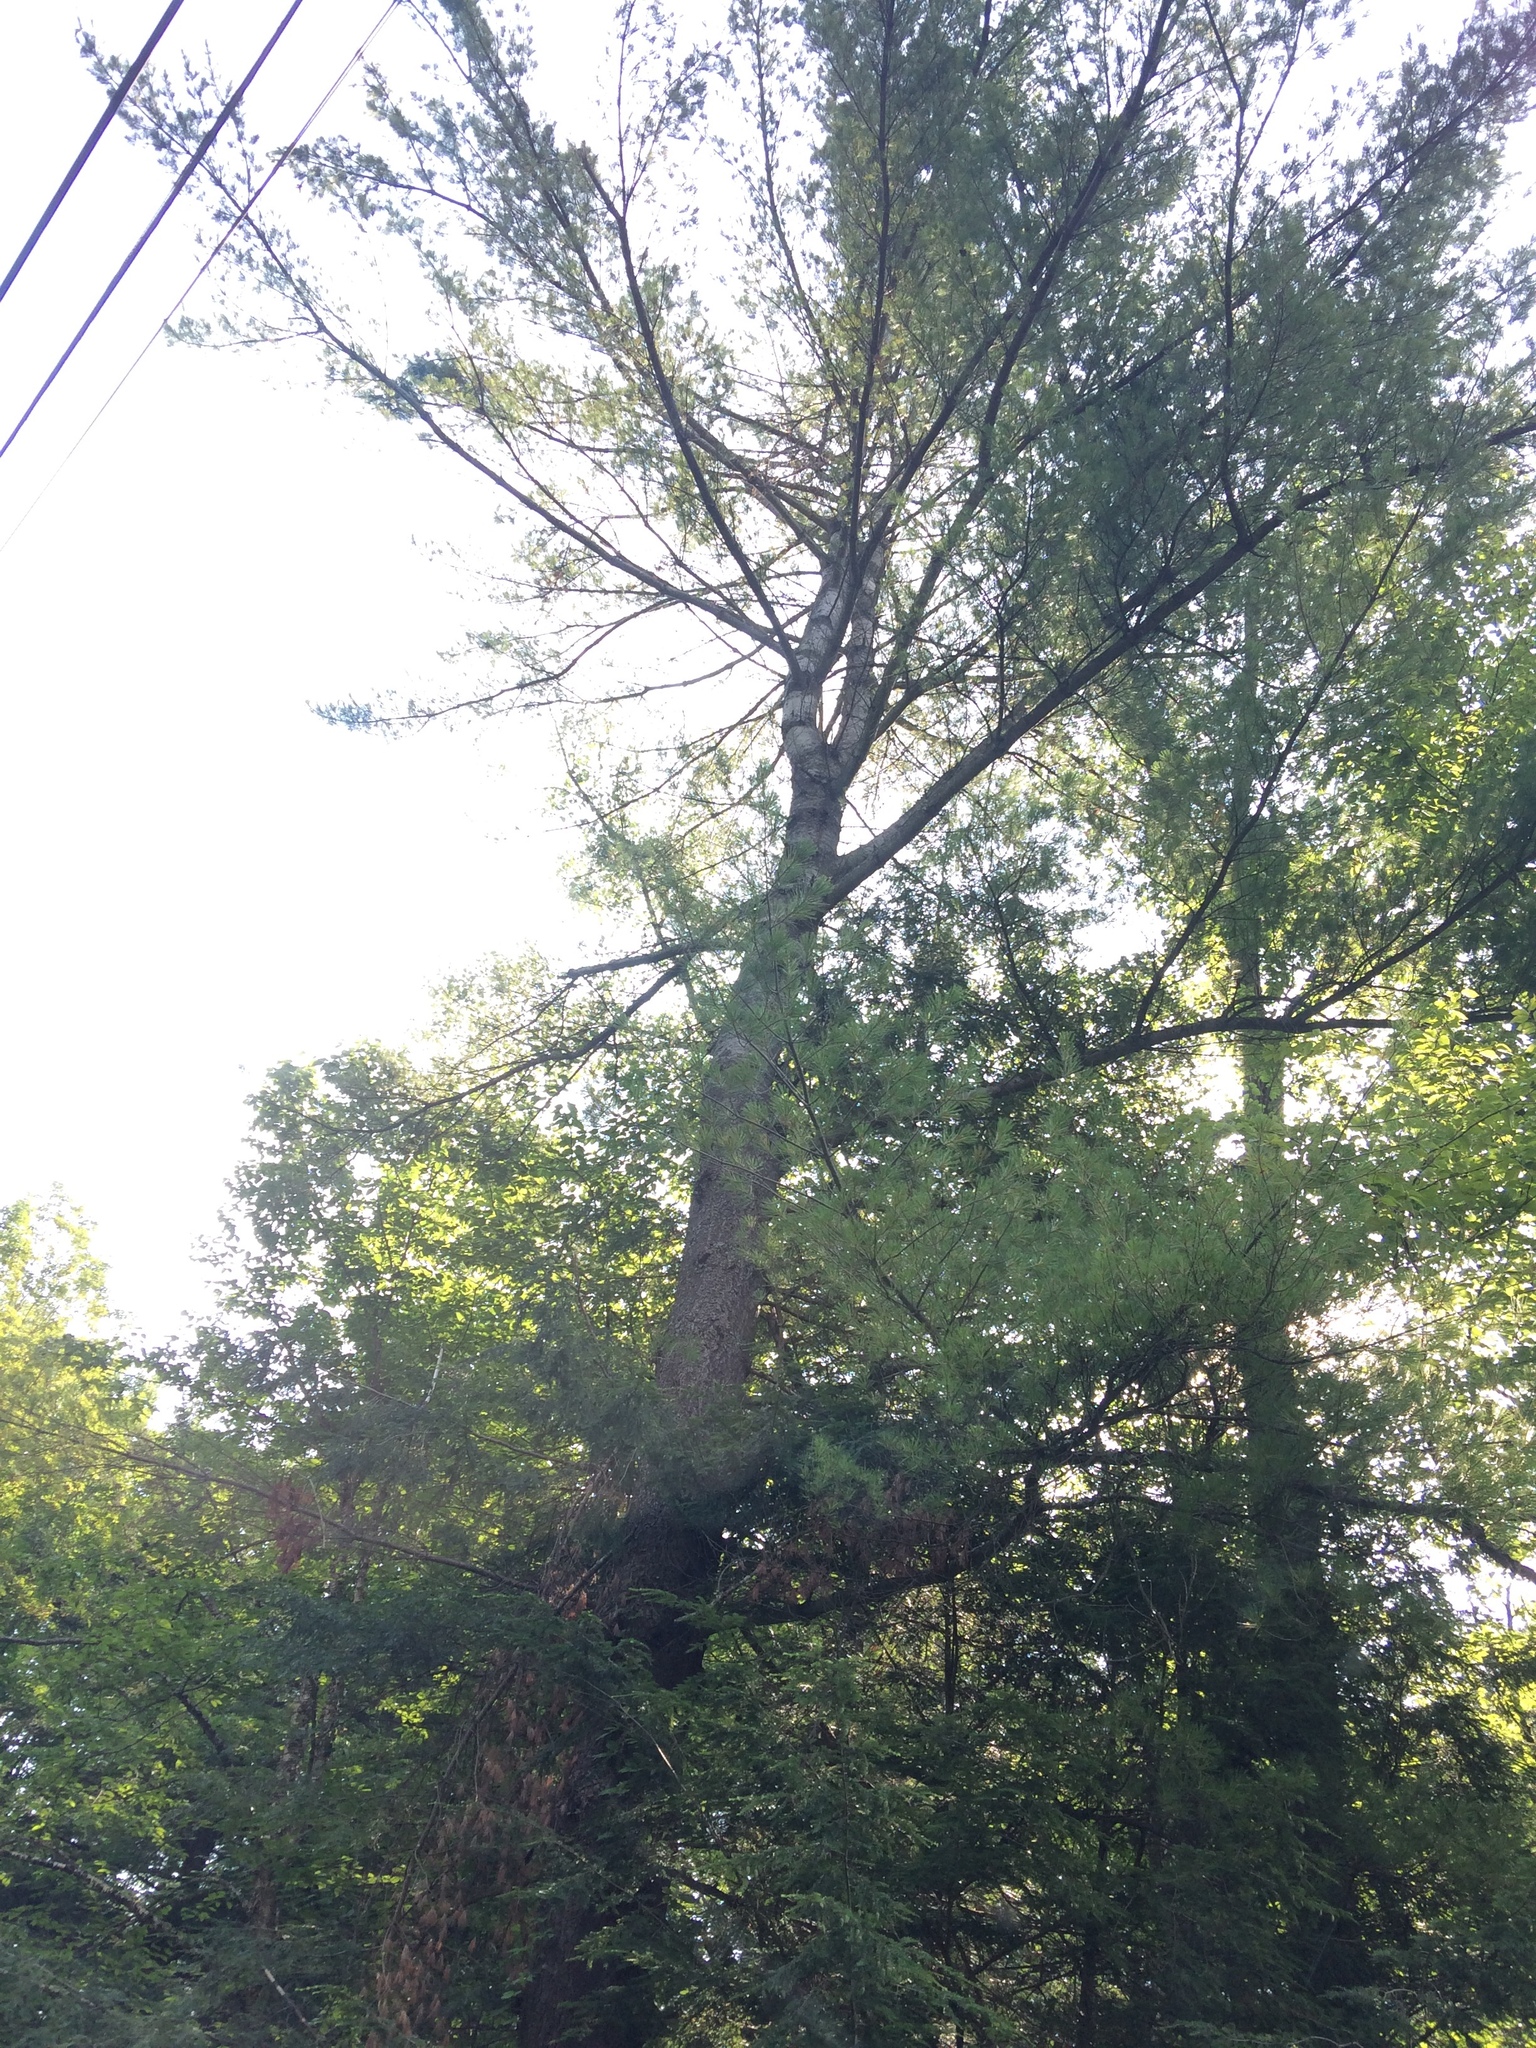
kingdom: Plantae
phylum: Tracheophyta
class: Pinopsida
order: Pinales
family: Pinaceae
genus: Pinus
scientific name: Pinus strobus
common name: Weymouth pine
